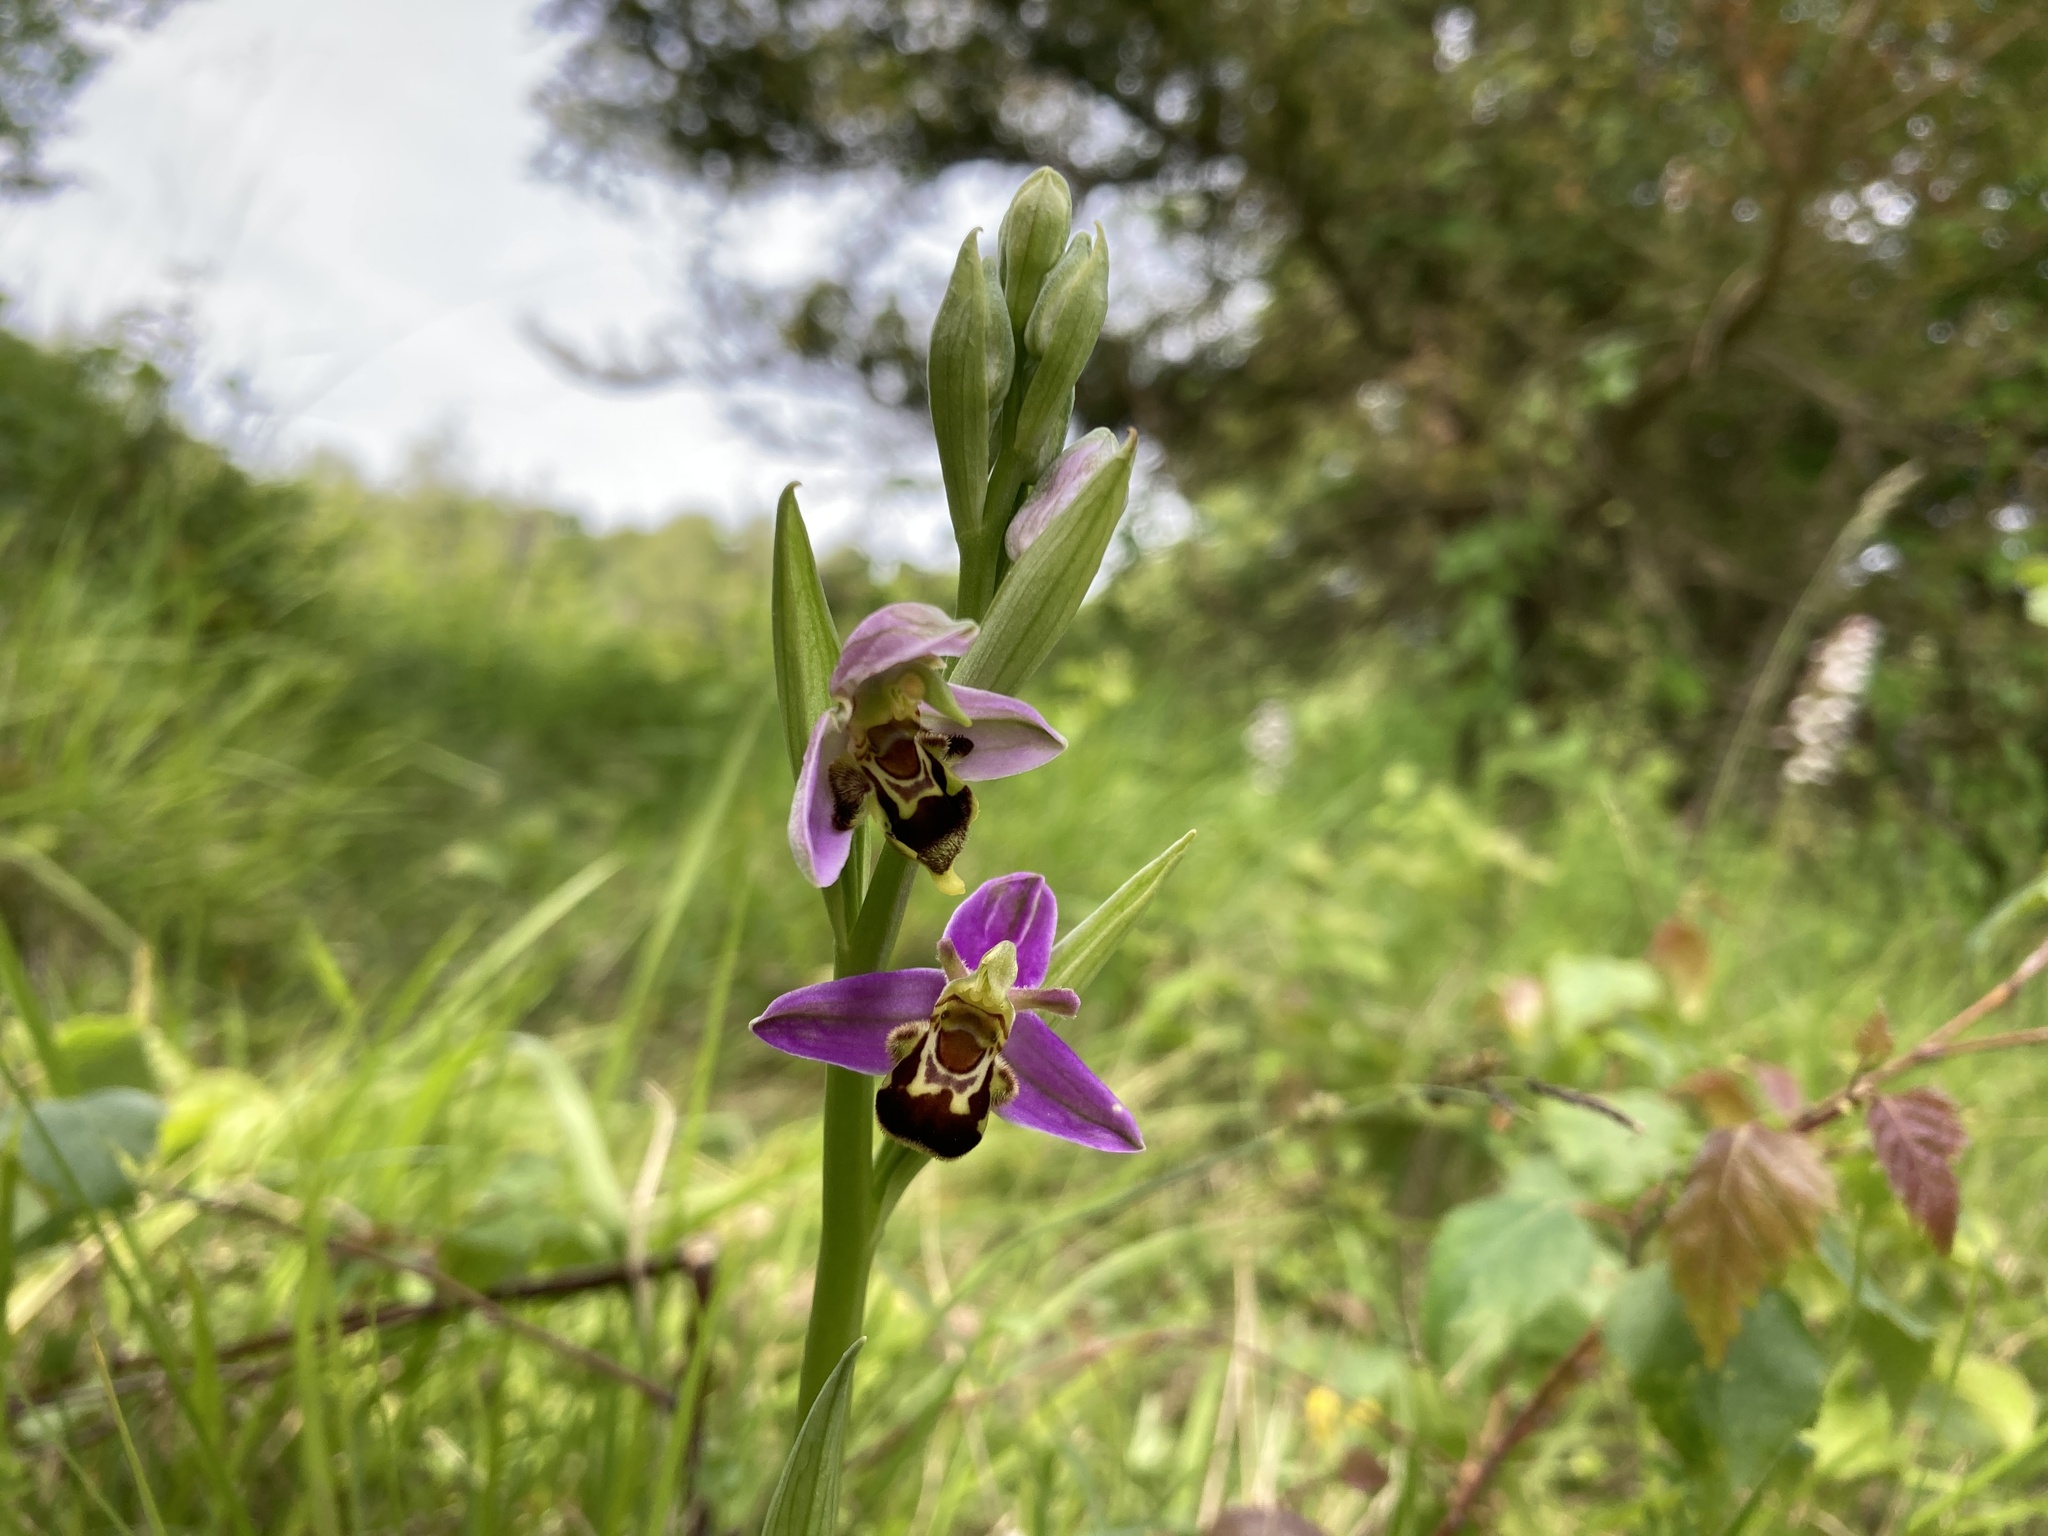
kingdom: Plantae
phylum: Tracheophyta
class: Liliopsida
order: Asparagales
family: Orchidaceae
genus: Ophrys
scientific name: Ophrys apifera
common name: Bee orchid
